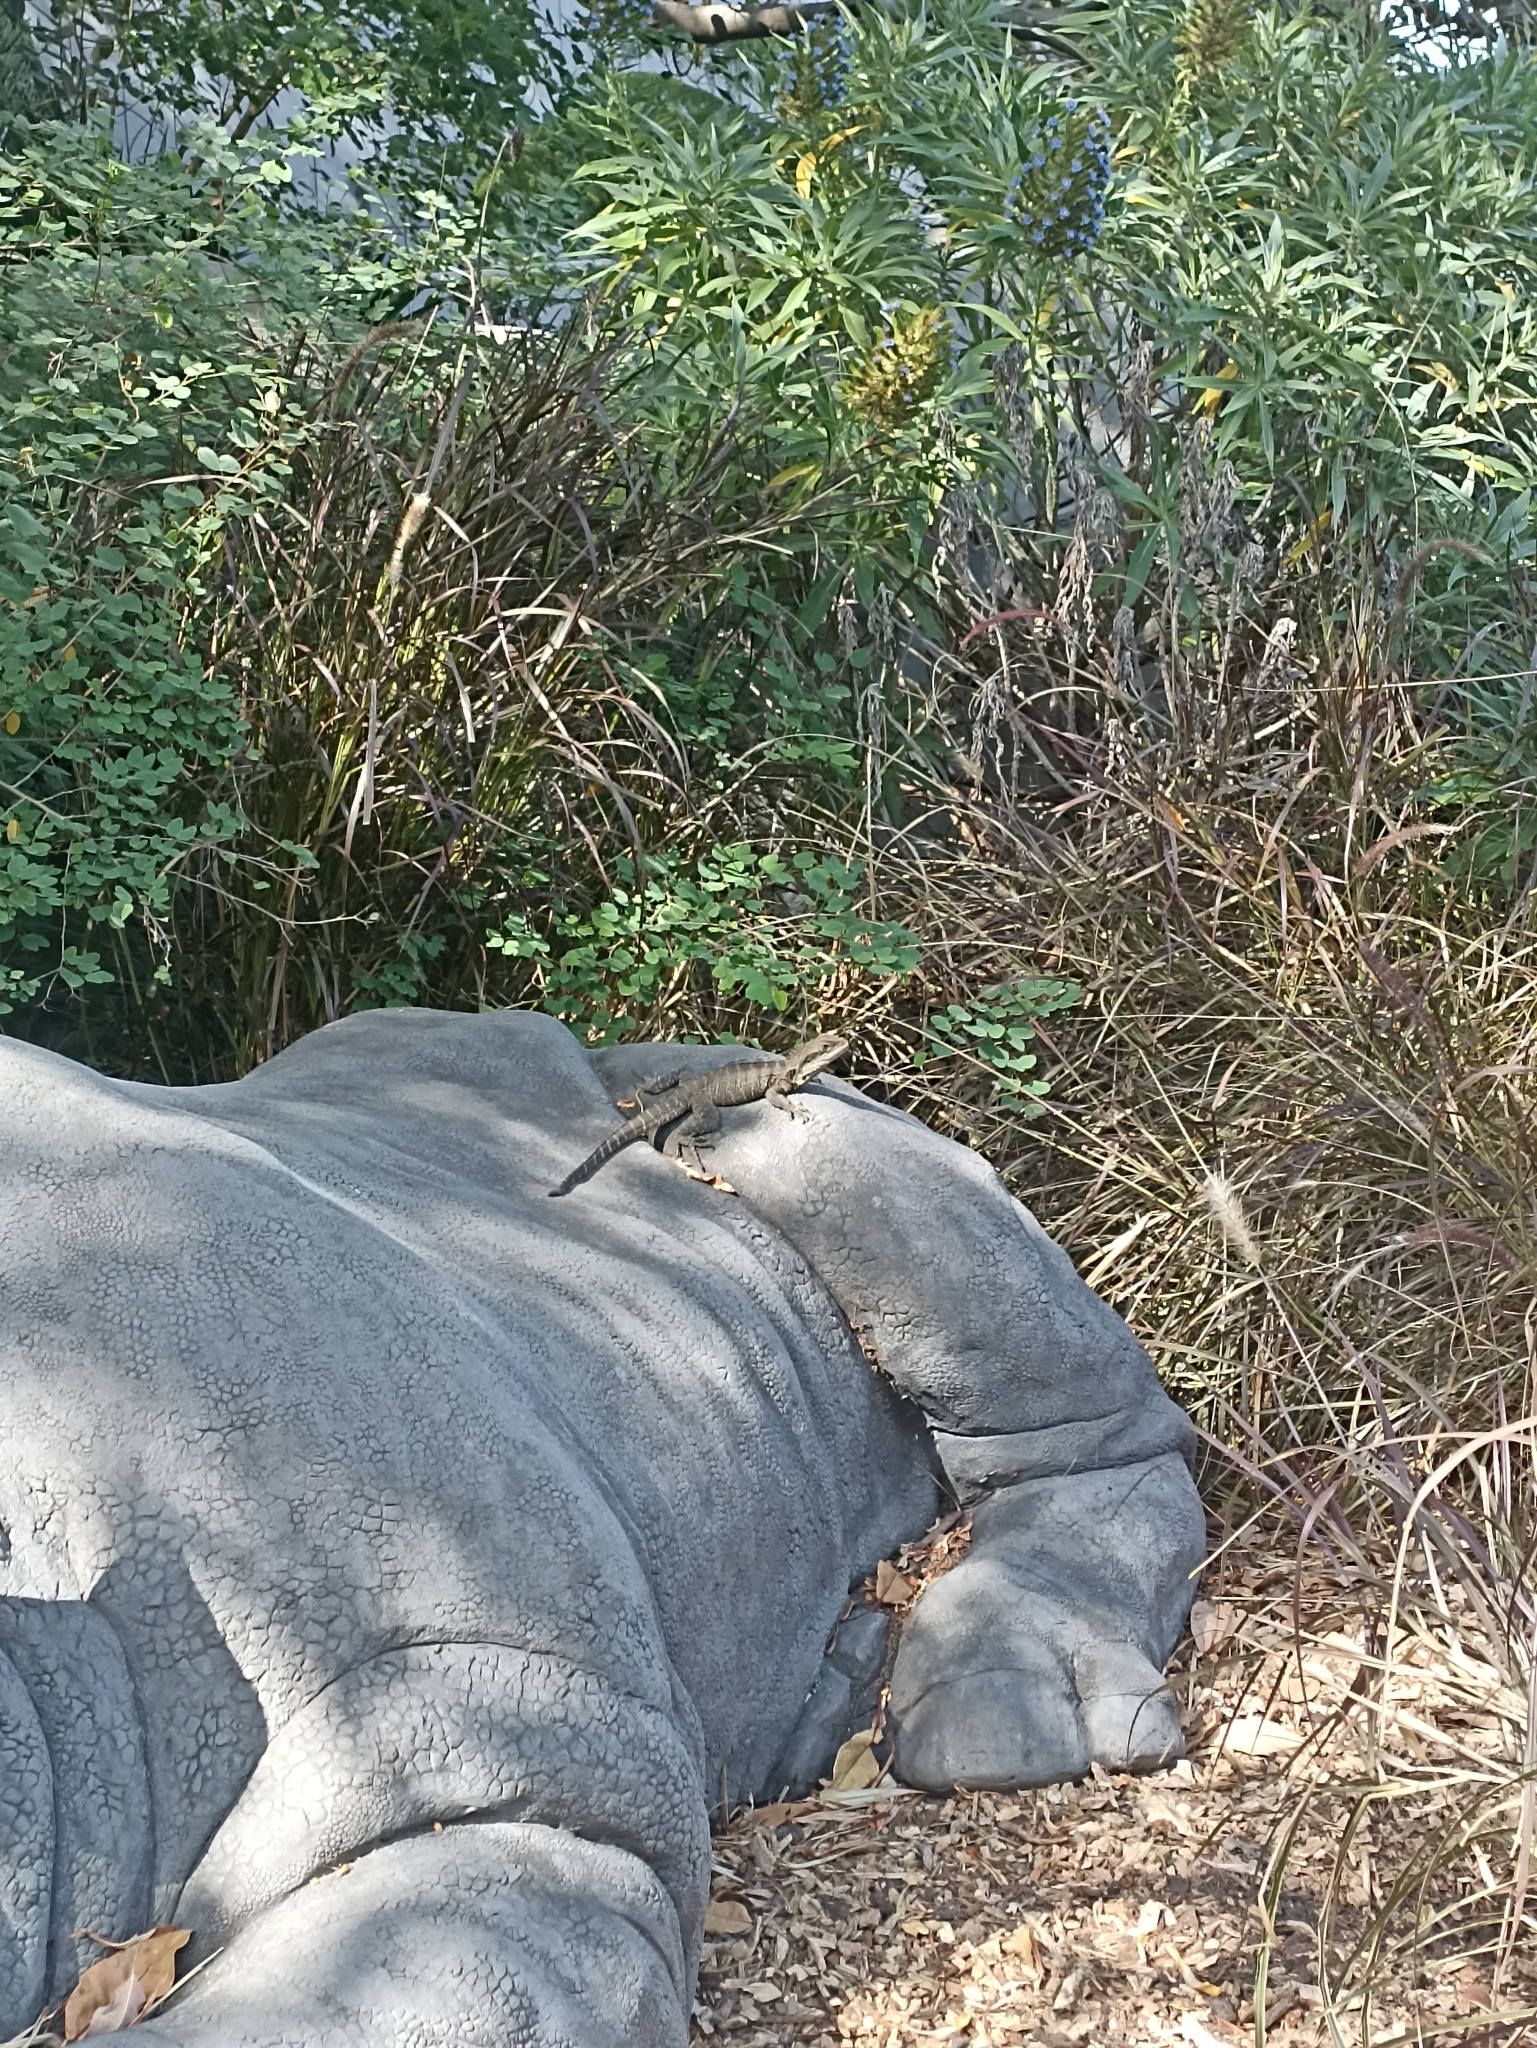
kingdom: Animalia
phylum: Chordata
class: Squamata
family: Agamidae
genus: Intellagama
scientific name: Intellagama lesueurii
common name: Eastern water dragon
